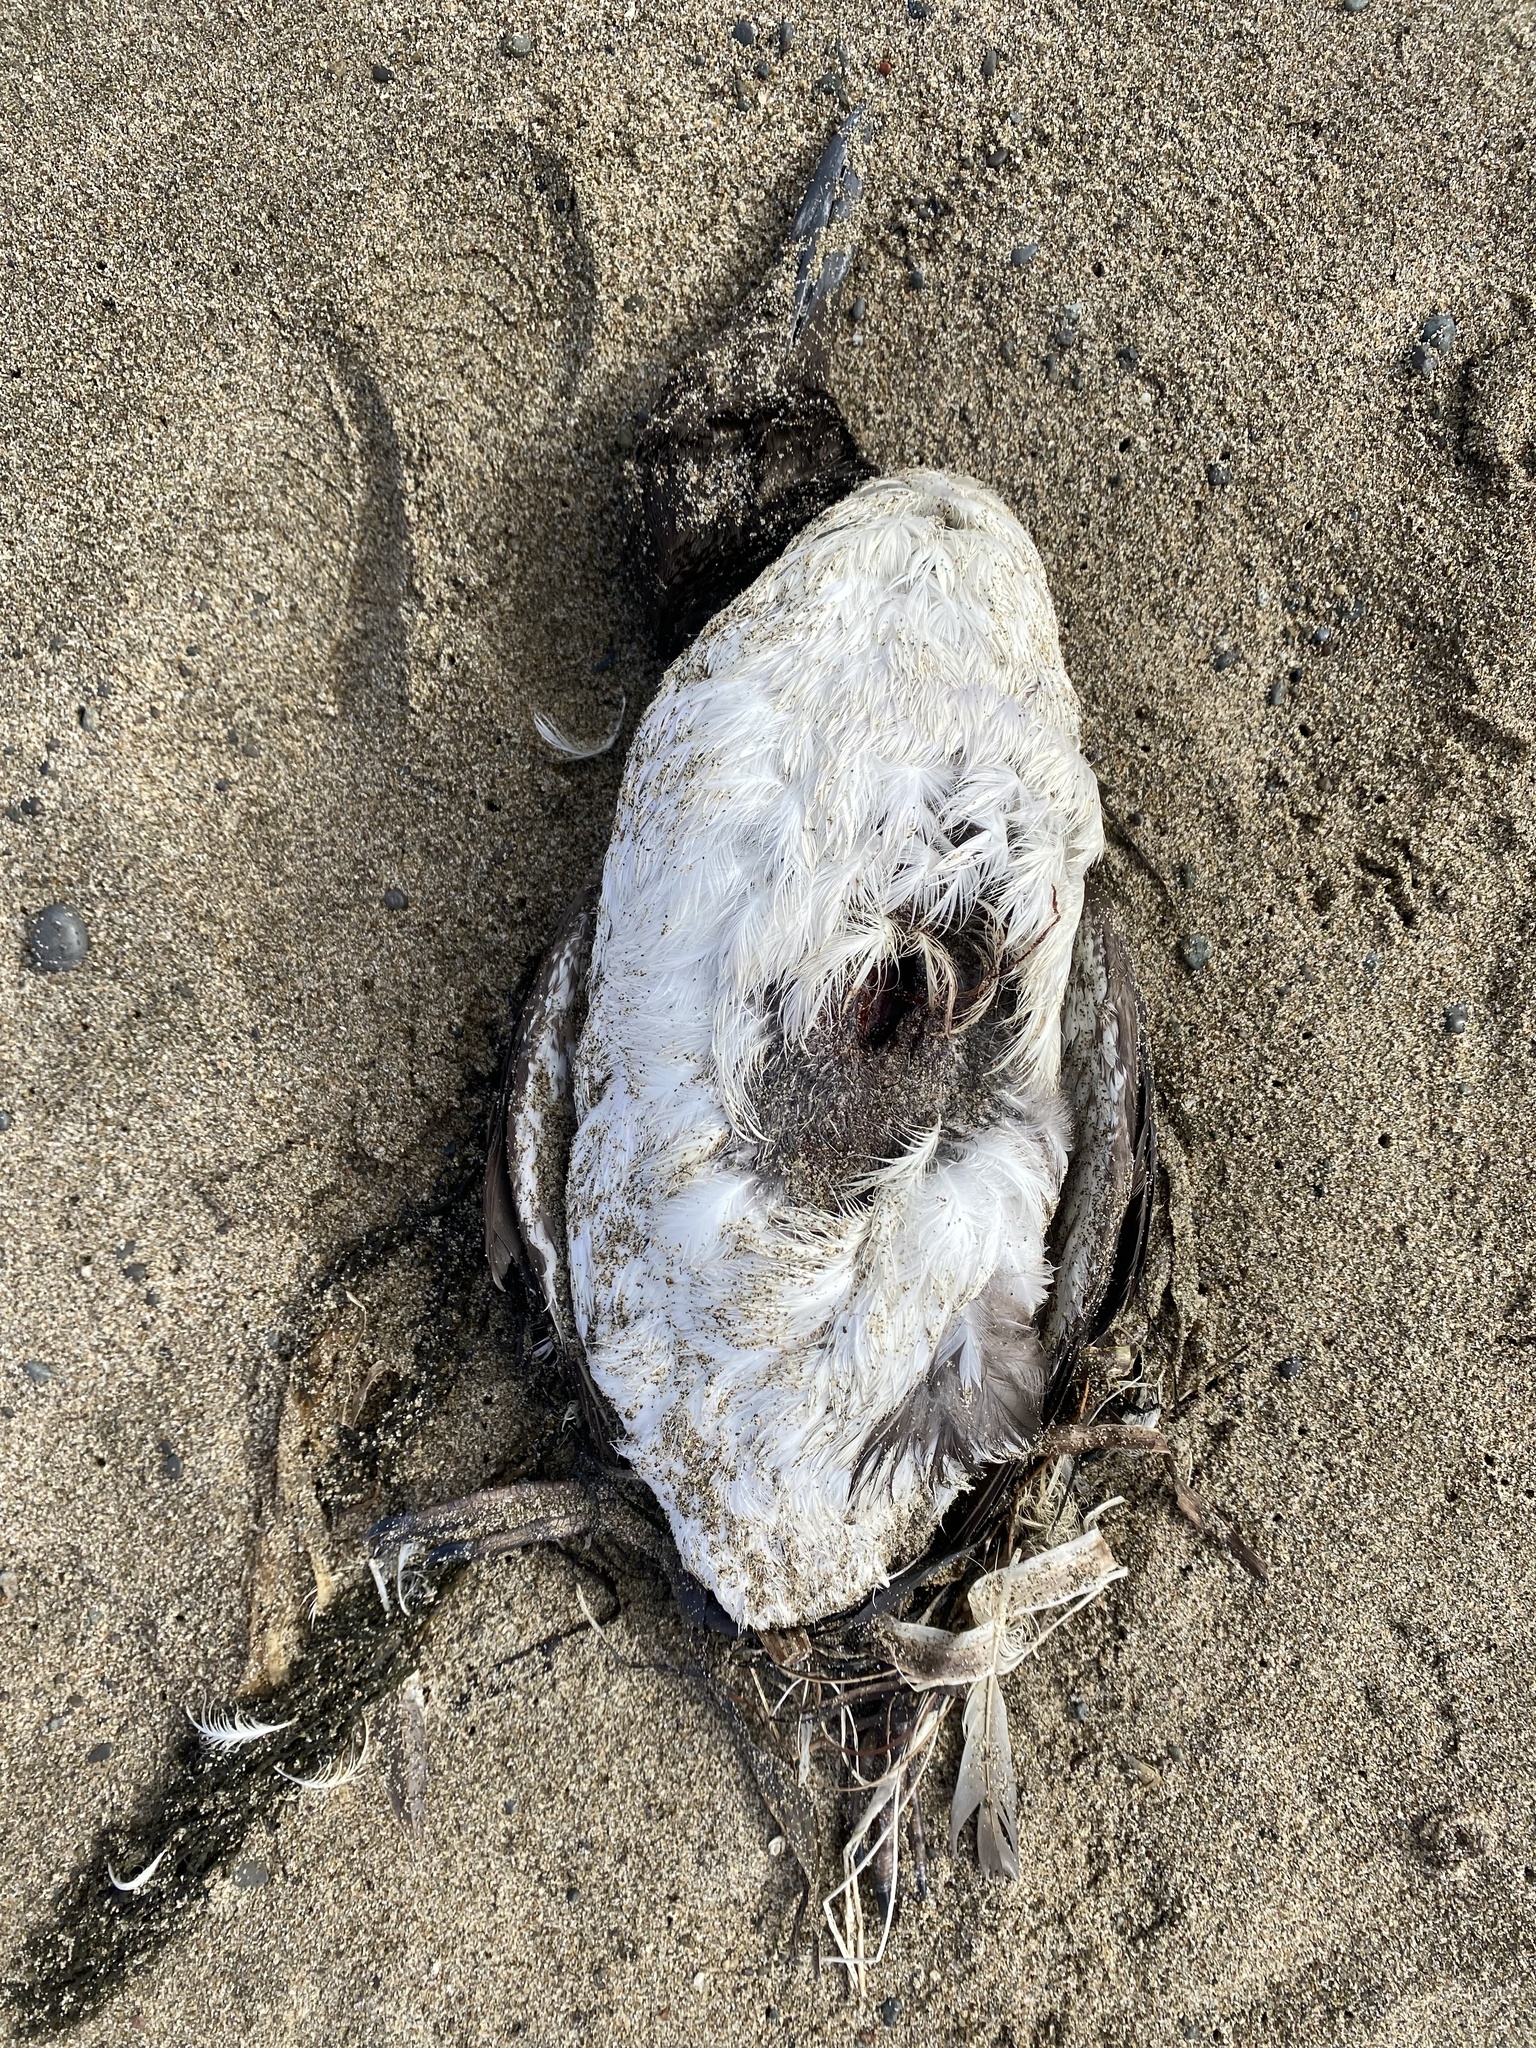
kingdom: Animalia
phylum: Chordata
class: Aves
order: Charadriiformes
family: Alcidae
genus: Uria
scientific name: Uria aalge
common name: Common murre
